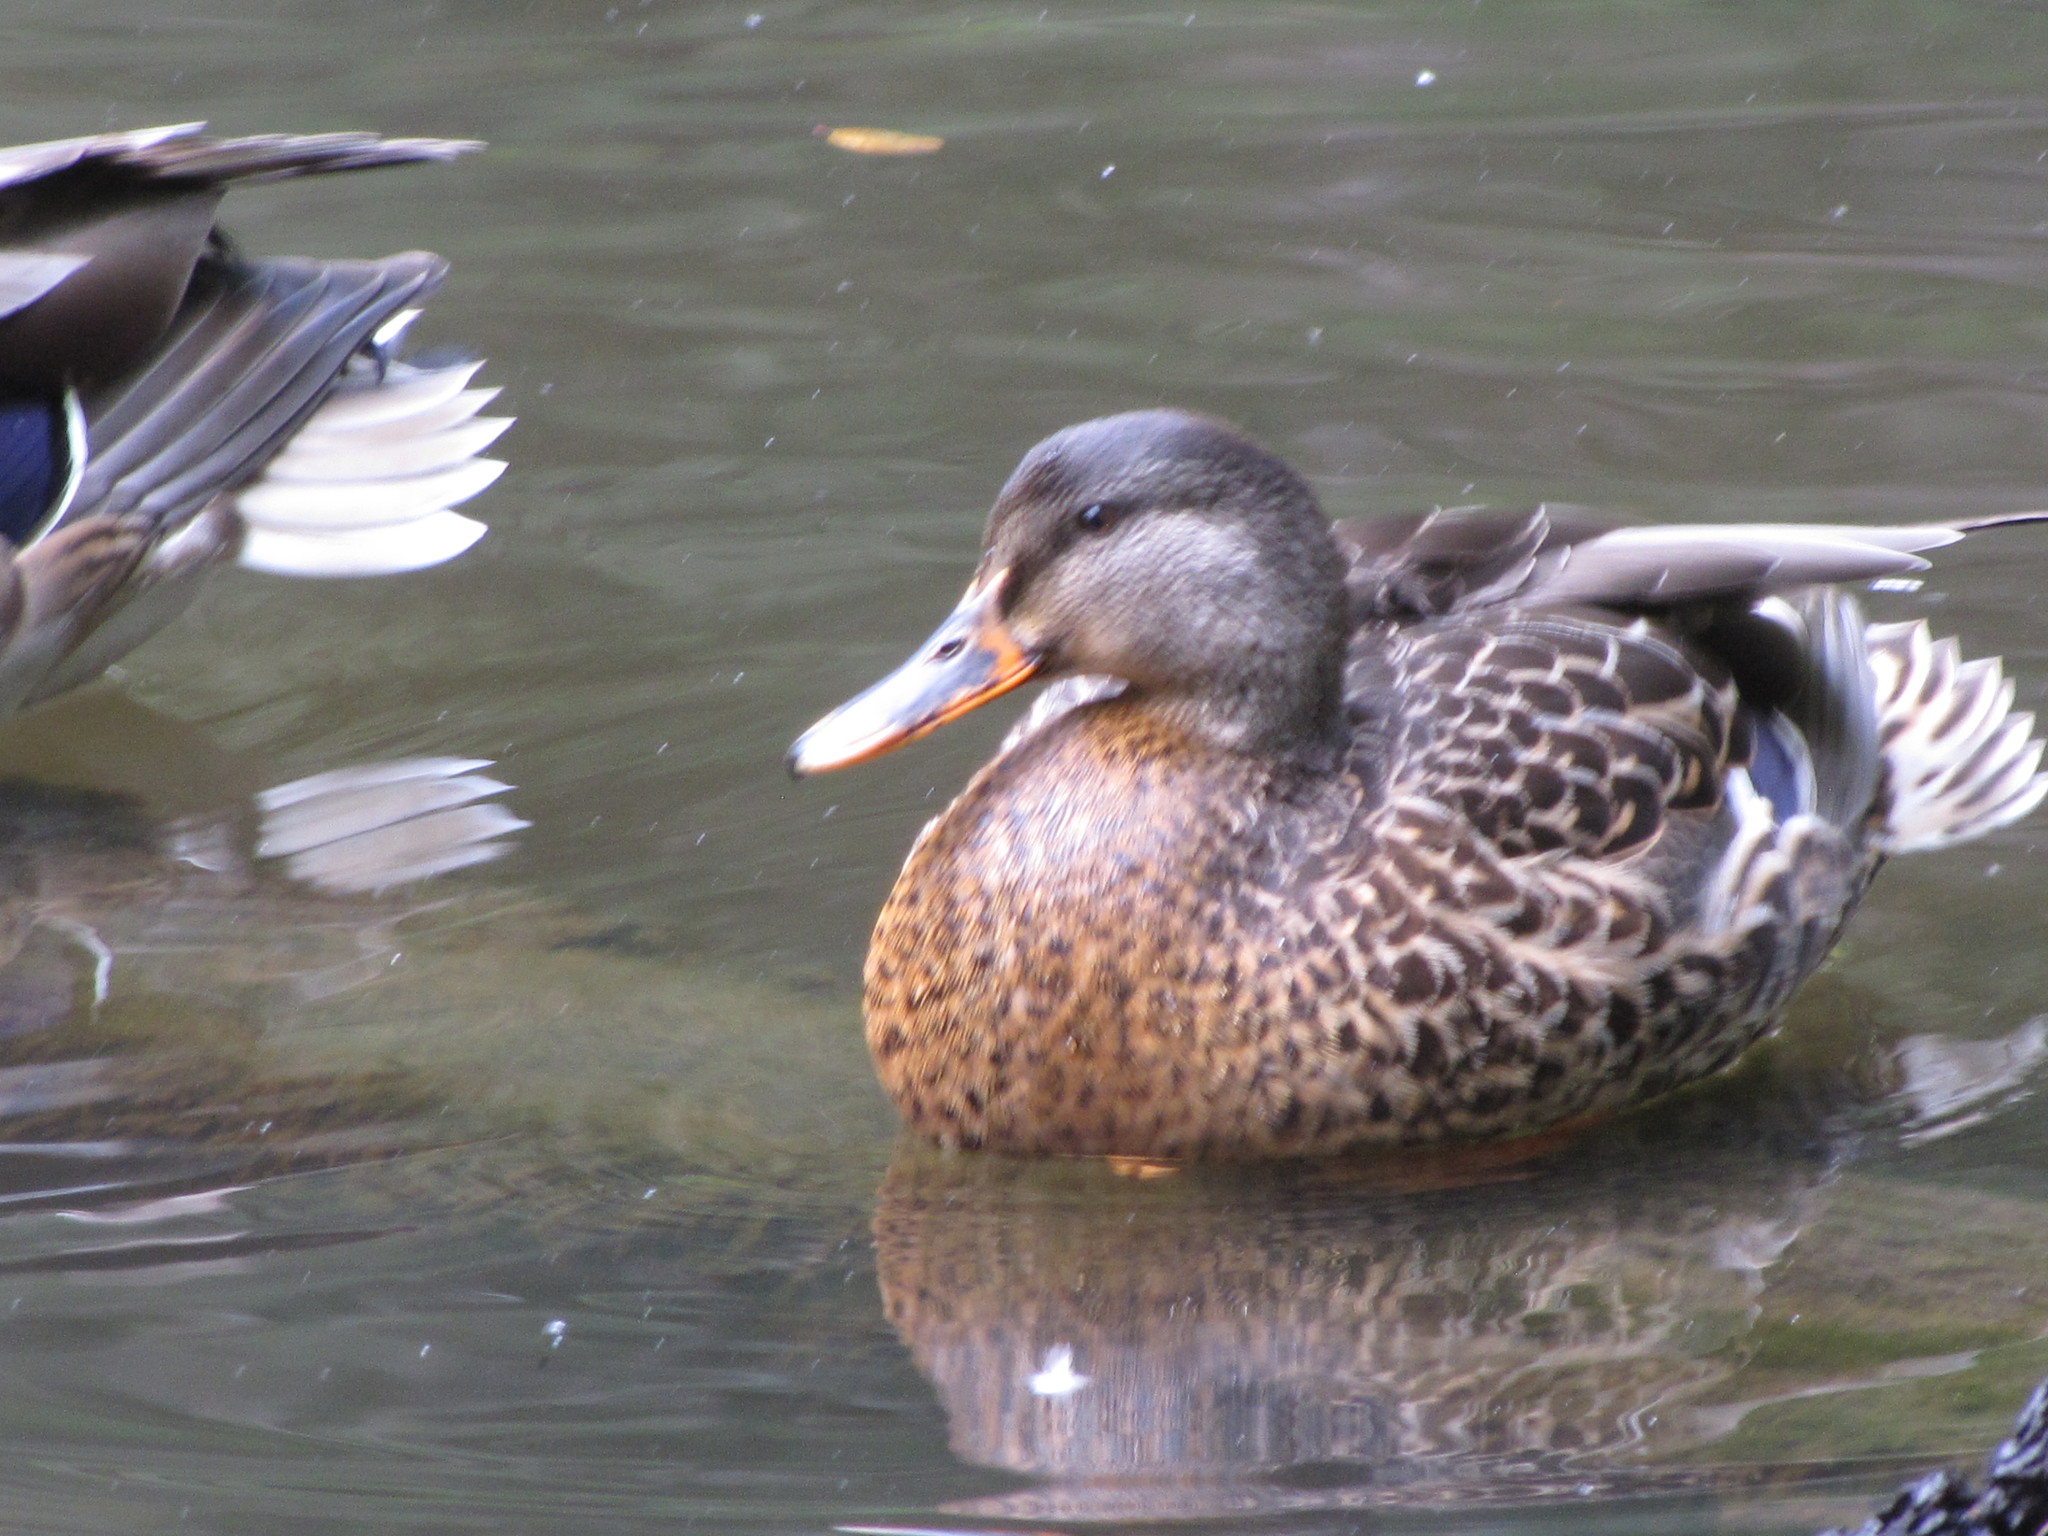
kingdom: Animalia
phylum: Chordata
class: Aves
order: Anseriformes
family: Anatidae
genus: Anas
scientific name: Anas platyrhynchos
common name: Mallard
